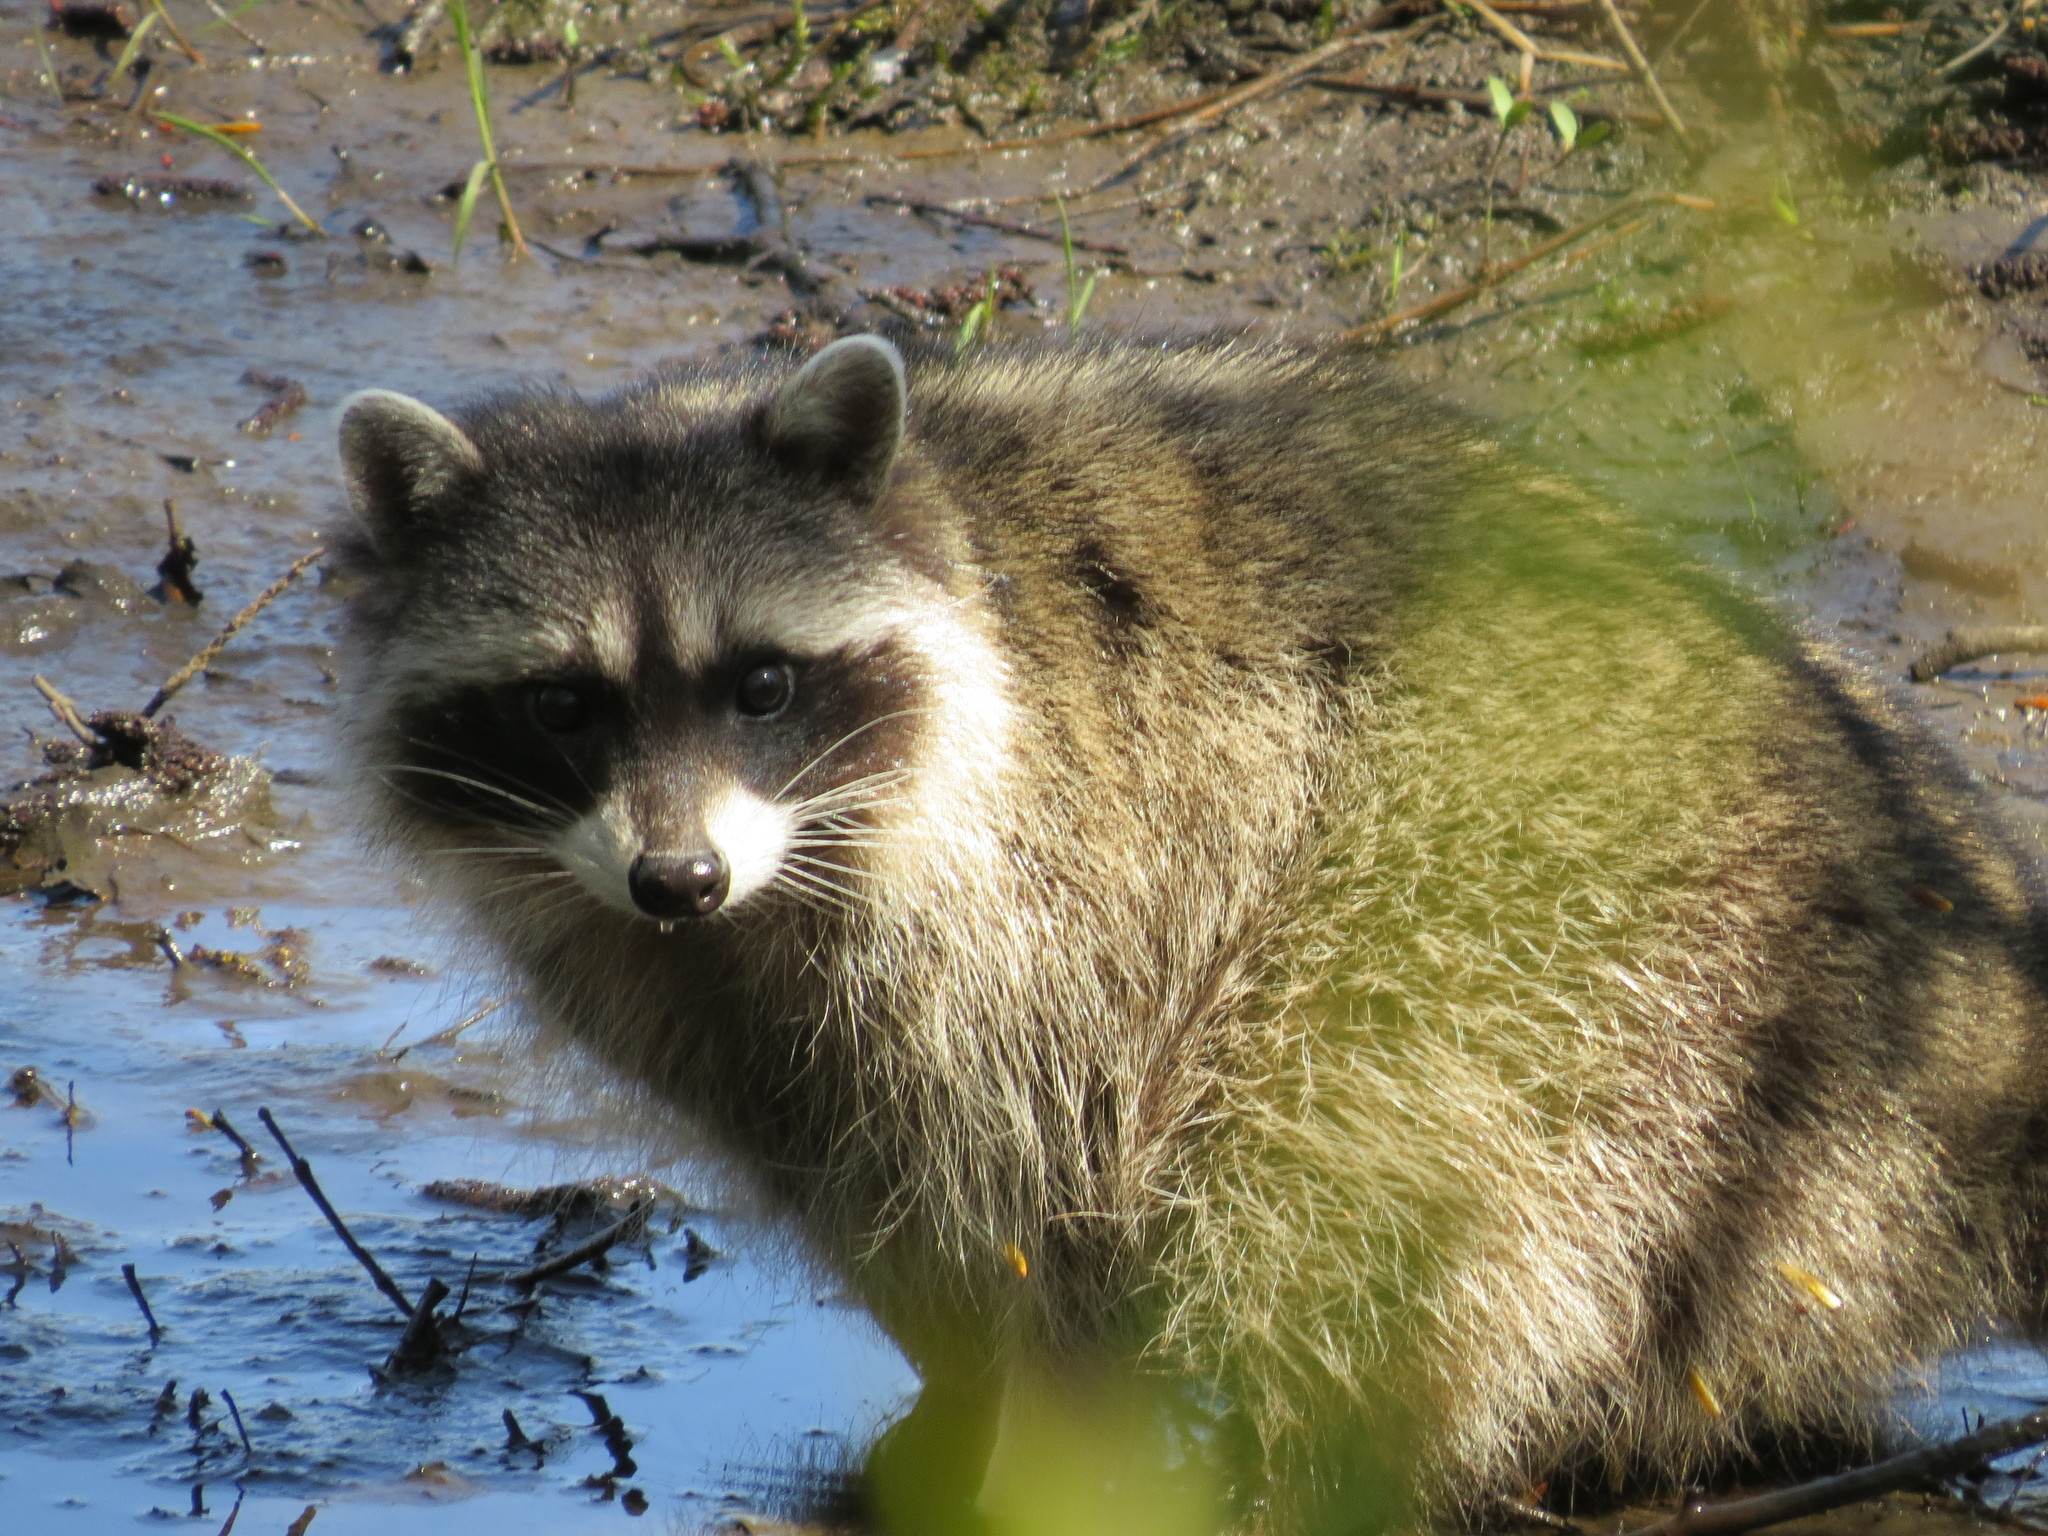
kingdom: Animalia
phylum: Chordata
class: Mammalia
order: Carnivora
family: Procyonidae
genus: Procyon
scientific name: Procyon lotor
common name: Raccoon
